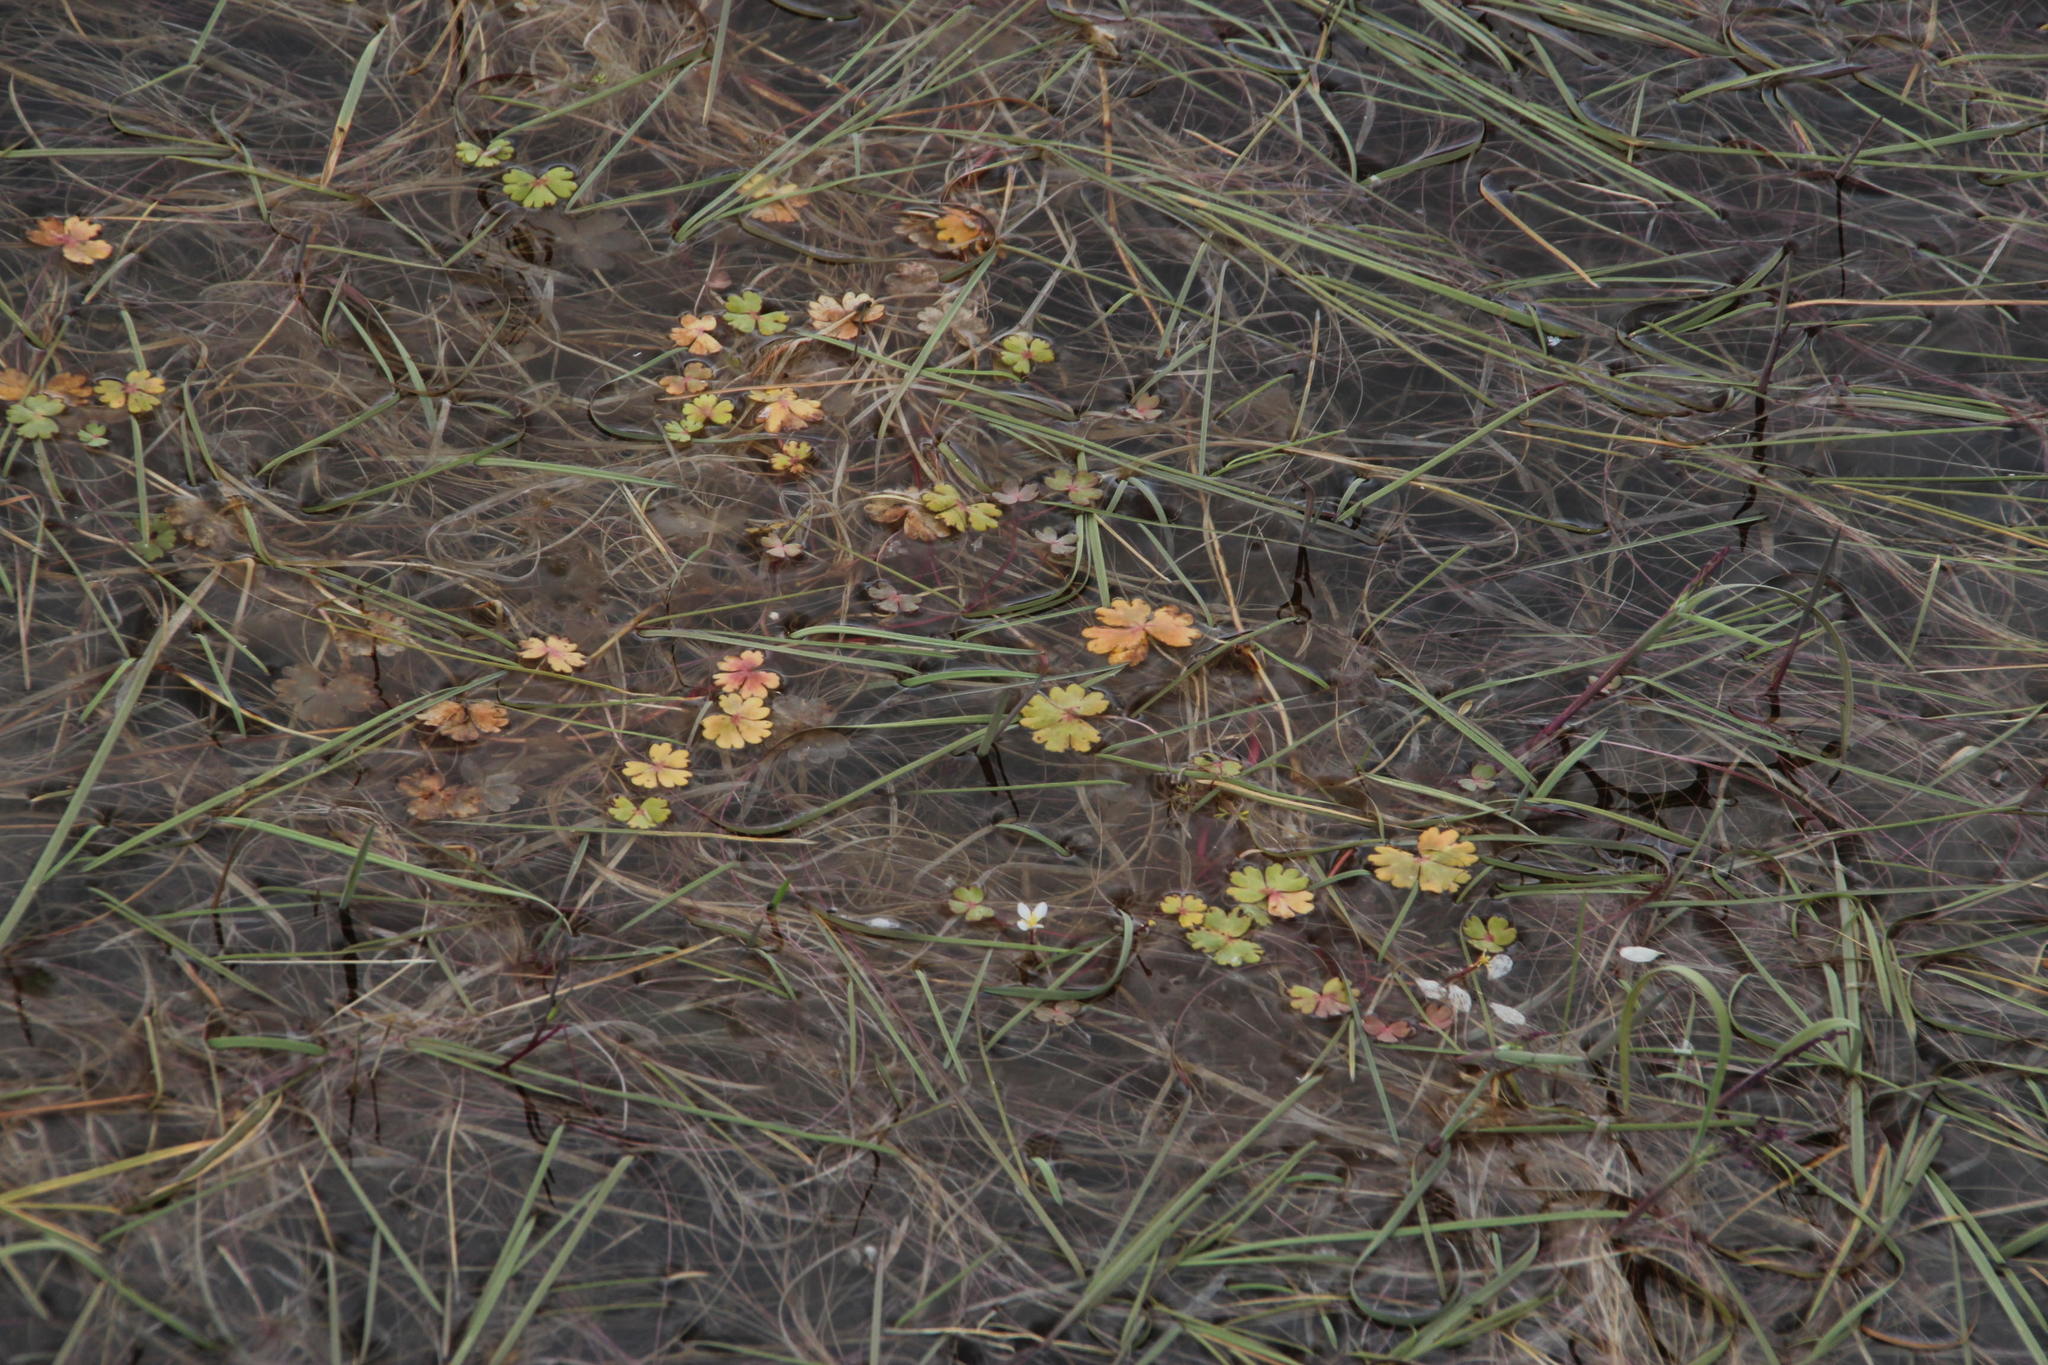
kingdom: Plantae
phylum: Tracheophyta
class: Magnoliopsida
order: Ranunculales
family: Ranunculaceae
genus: Ranunculus
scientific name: Ranunculus ololeucos
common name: White-flowered buttercup
